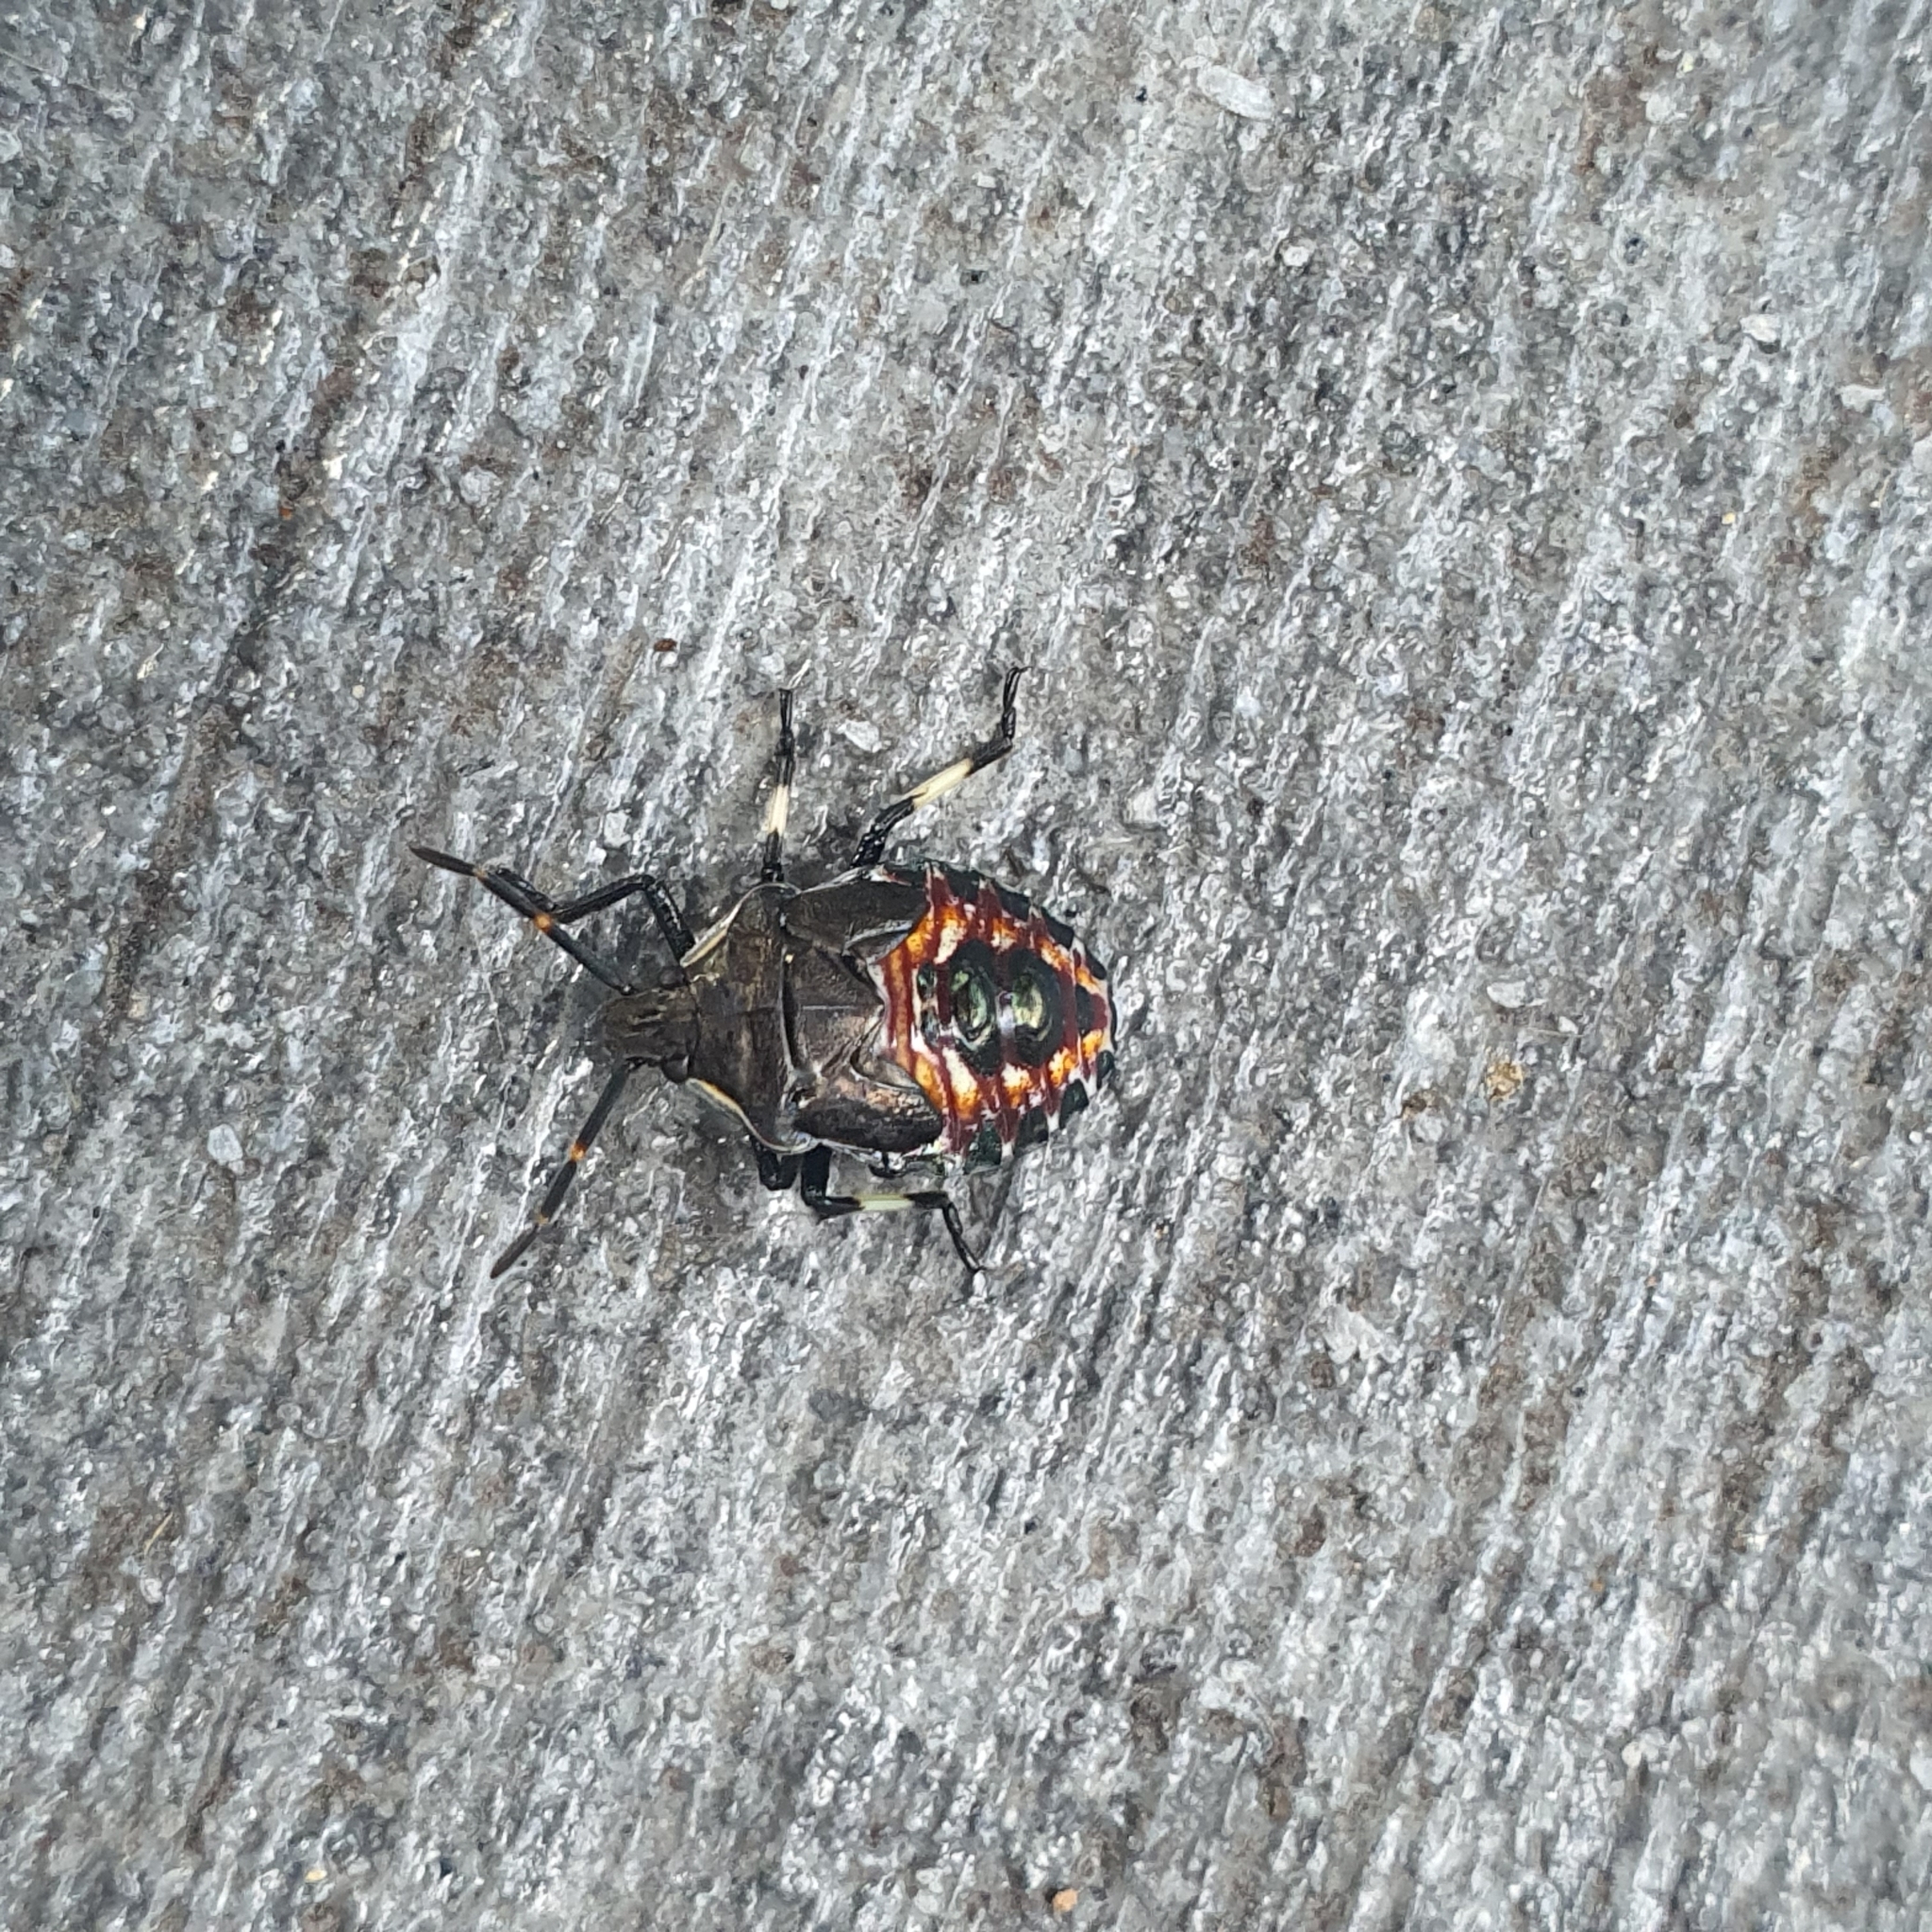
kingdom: Animalia
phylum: Arthropoda
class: Insecta
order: Hemiptera
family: Pentatomidae
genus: Oechalia
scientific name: Oechalia schellenbergii
